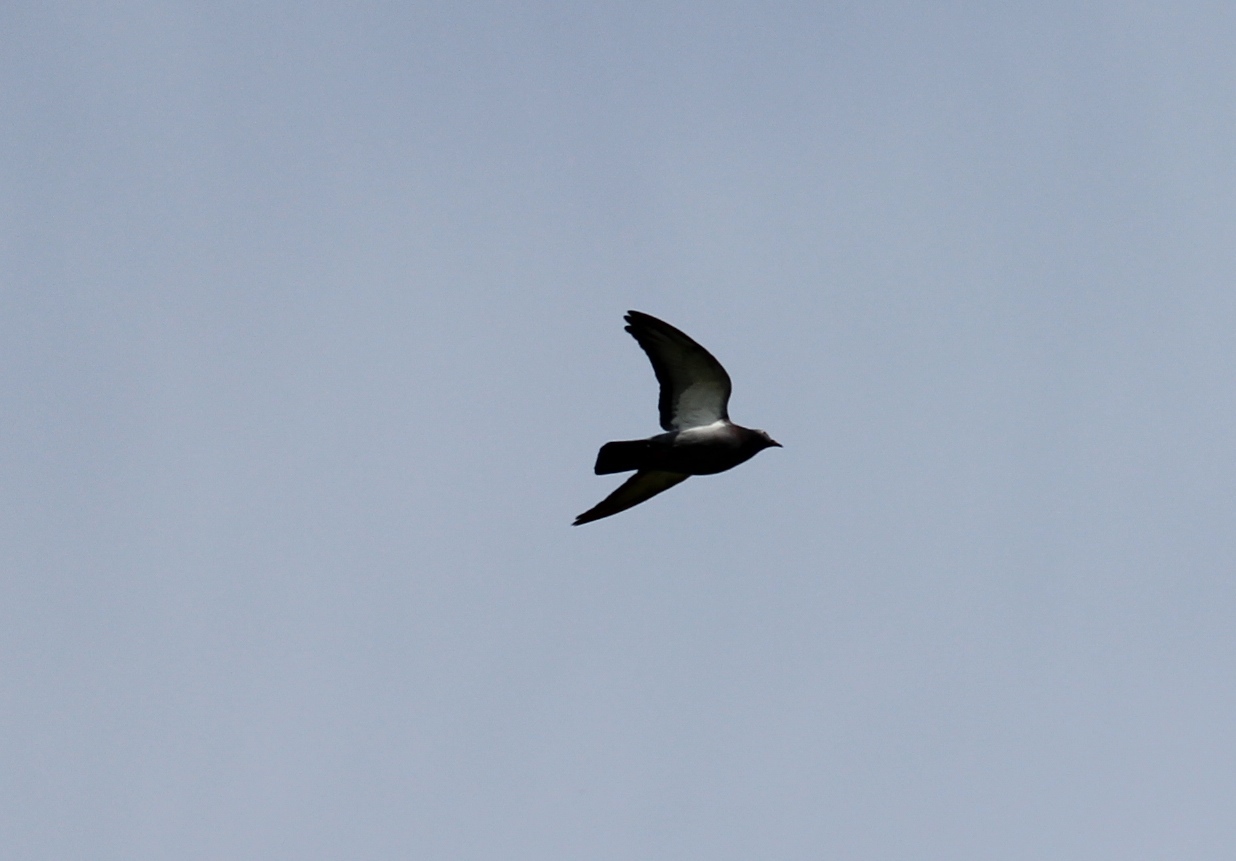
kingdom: Animalia
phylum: Chordata
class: Aves
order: Columbiformes
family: Columbidae
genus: Columba
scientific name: Columba livia
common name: Rock pigeon
